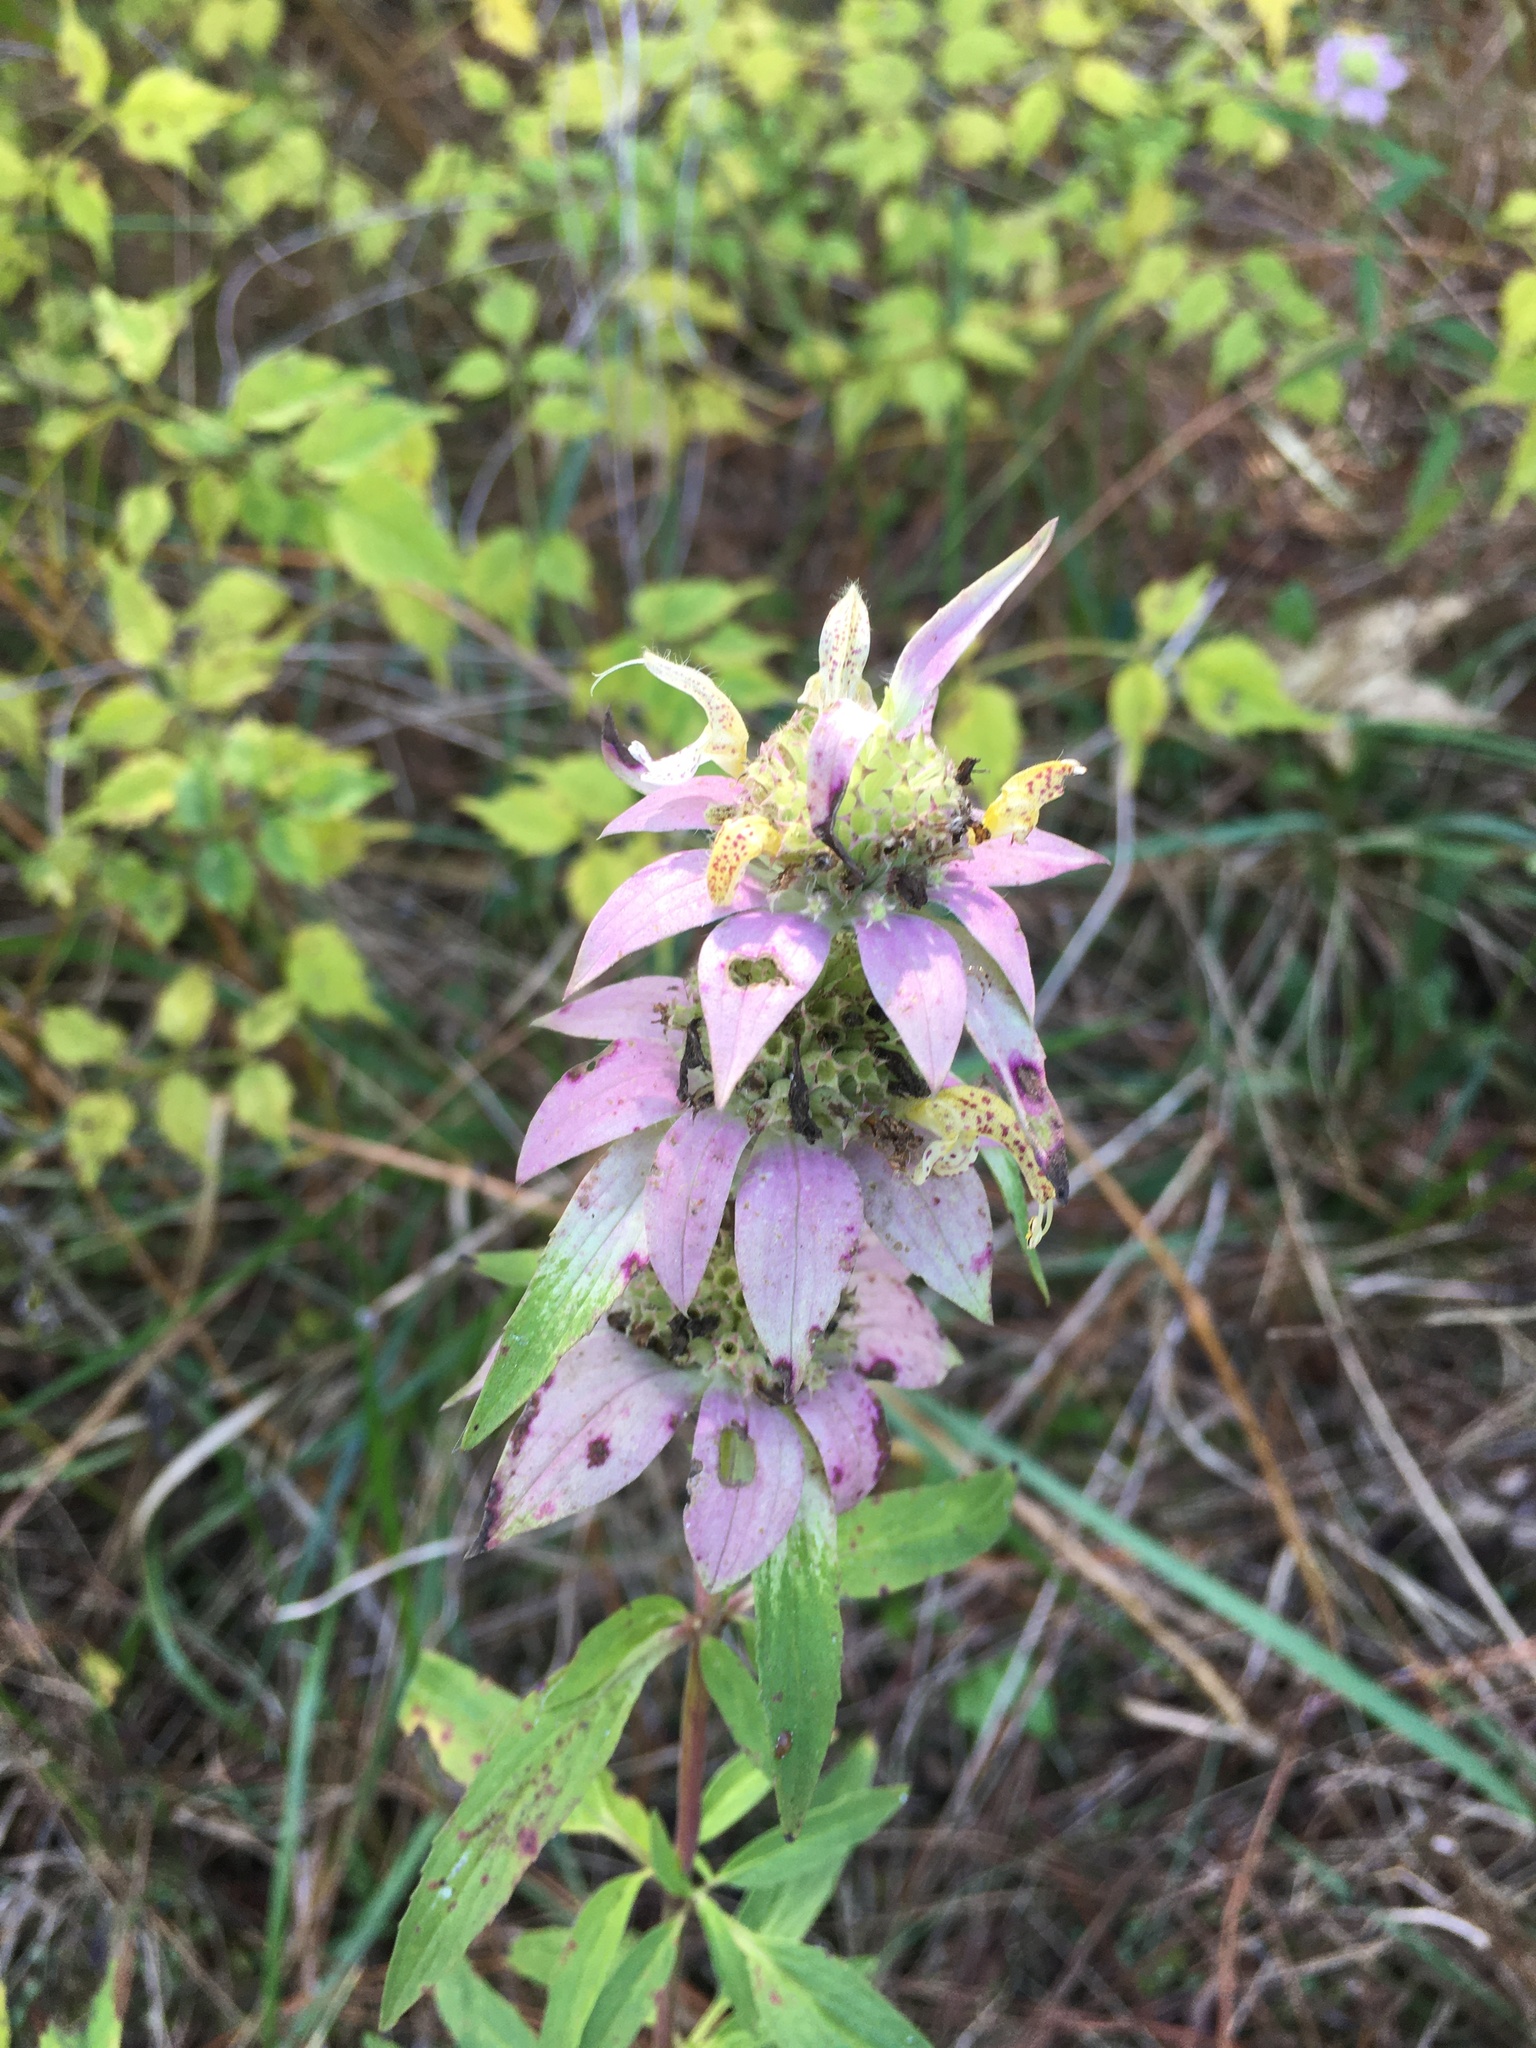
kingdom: Plantae
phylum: Tracheophyta
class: Magnoliopsida
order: Lamiales
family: Lamiaceae
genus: Monarda
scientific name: Monarda punctata
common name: Dotted monarda
